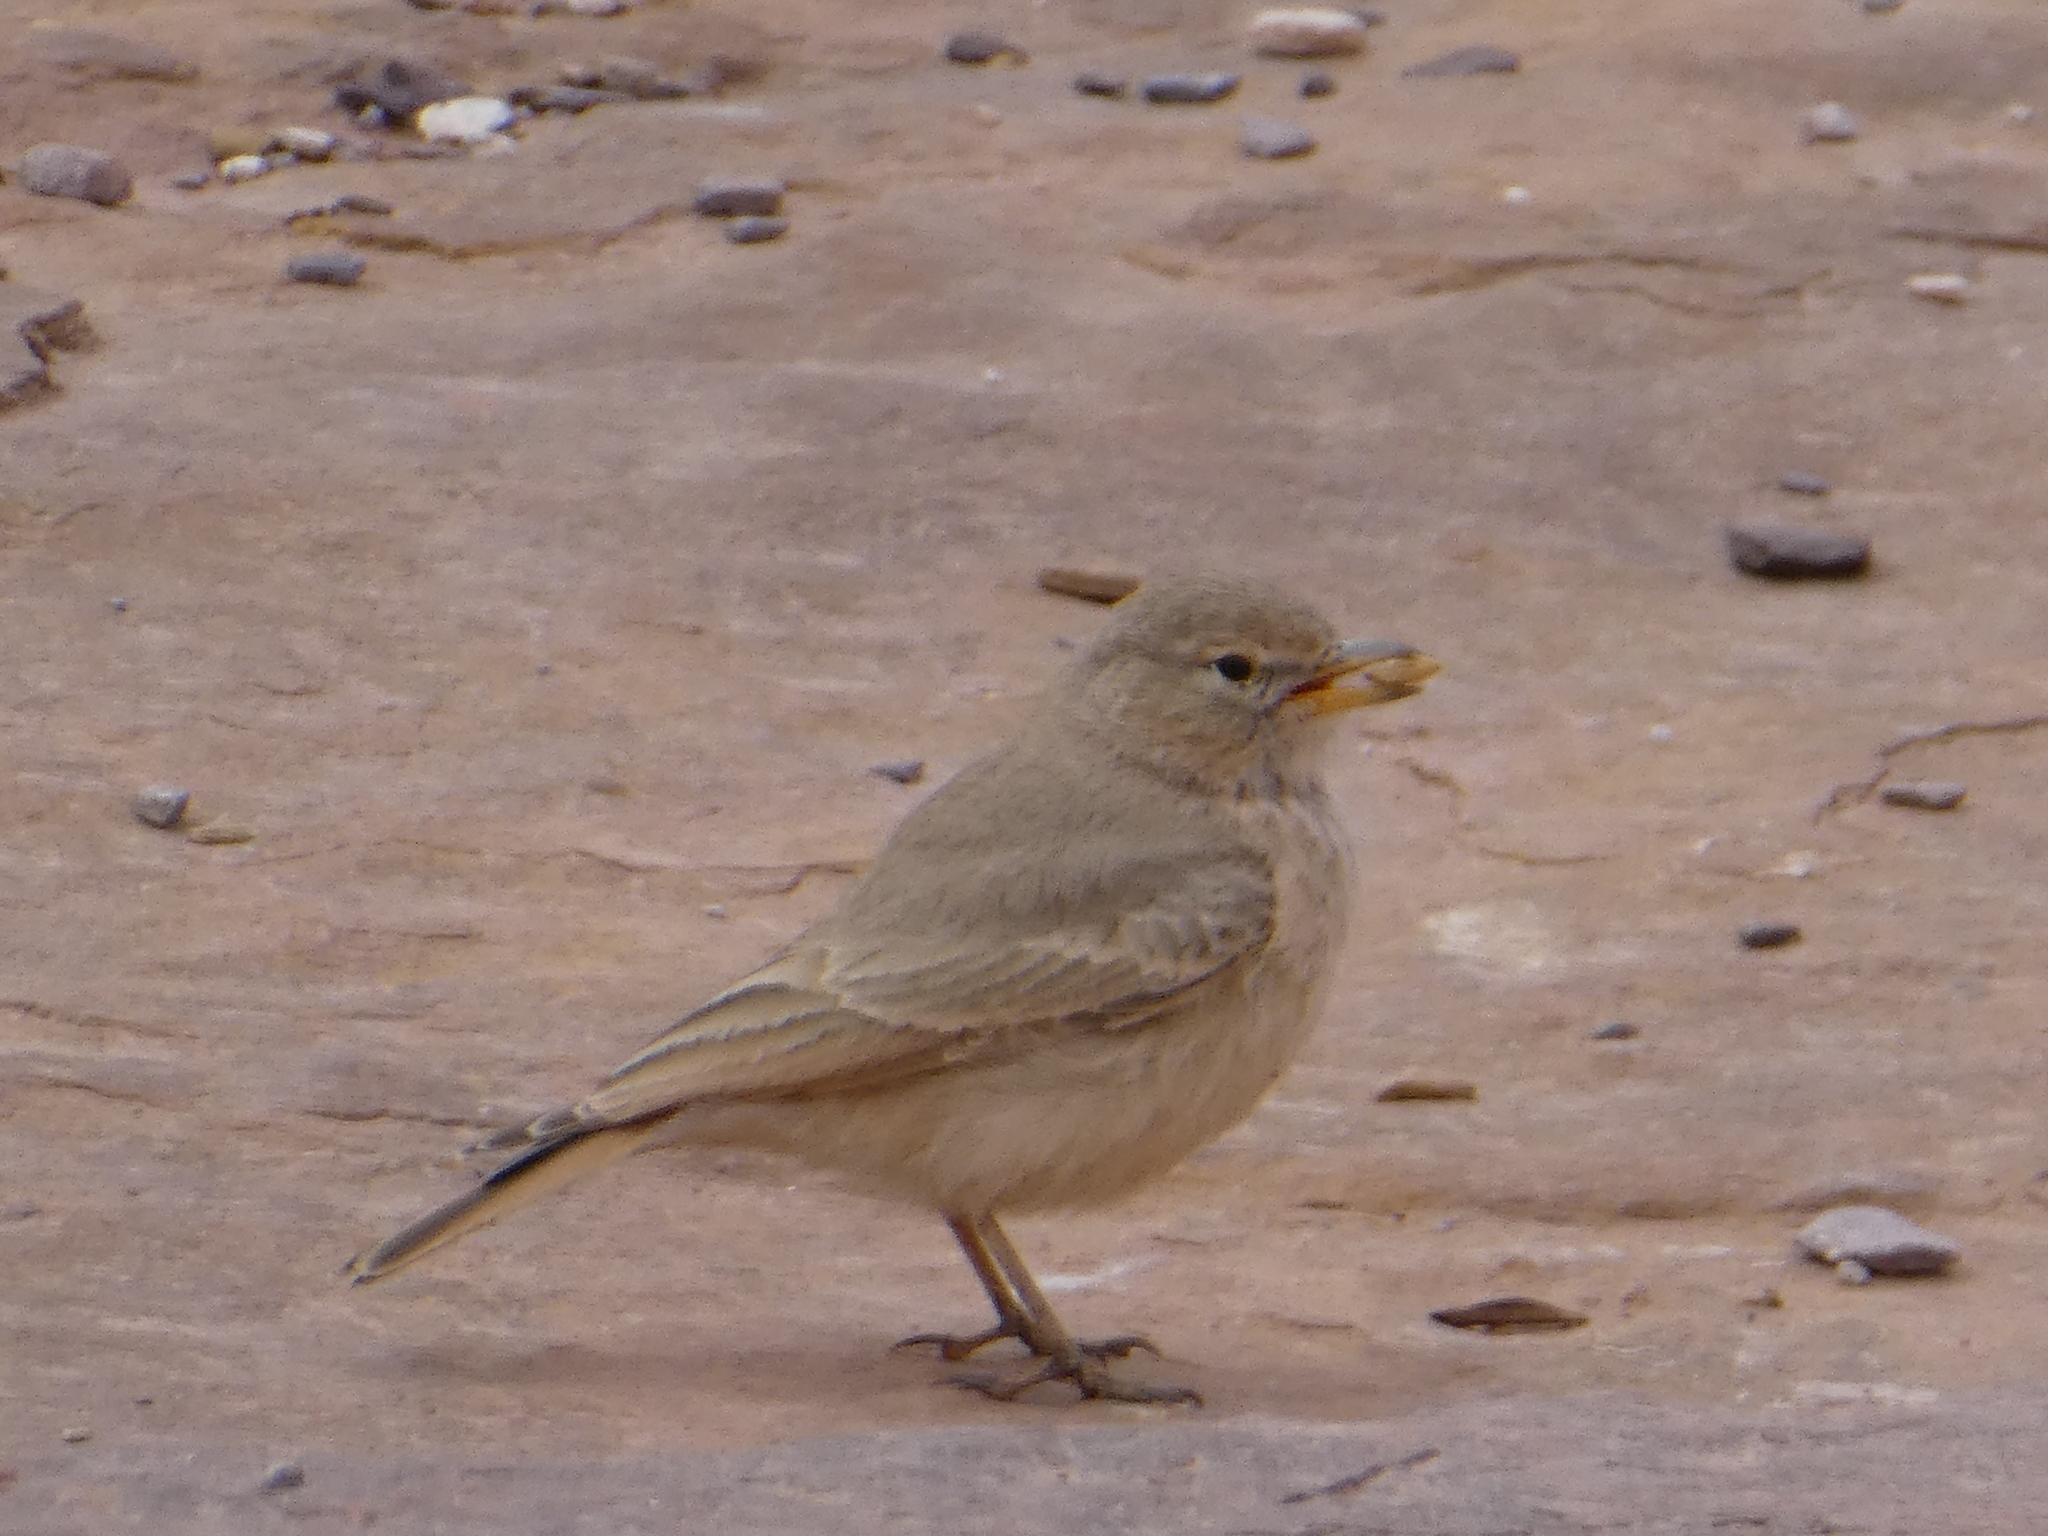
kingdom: Animalia
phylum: Chordata
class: Aves
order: Passeriformes
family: Alaudidae
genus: Ammomanes
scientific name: Ammomanes deserti
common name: Desert lark
